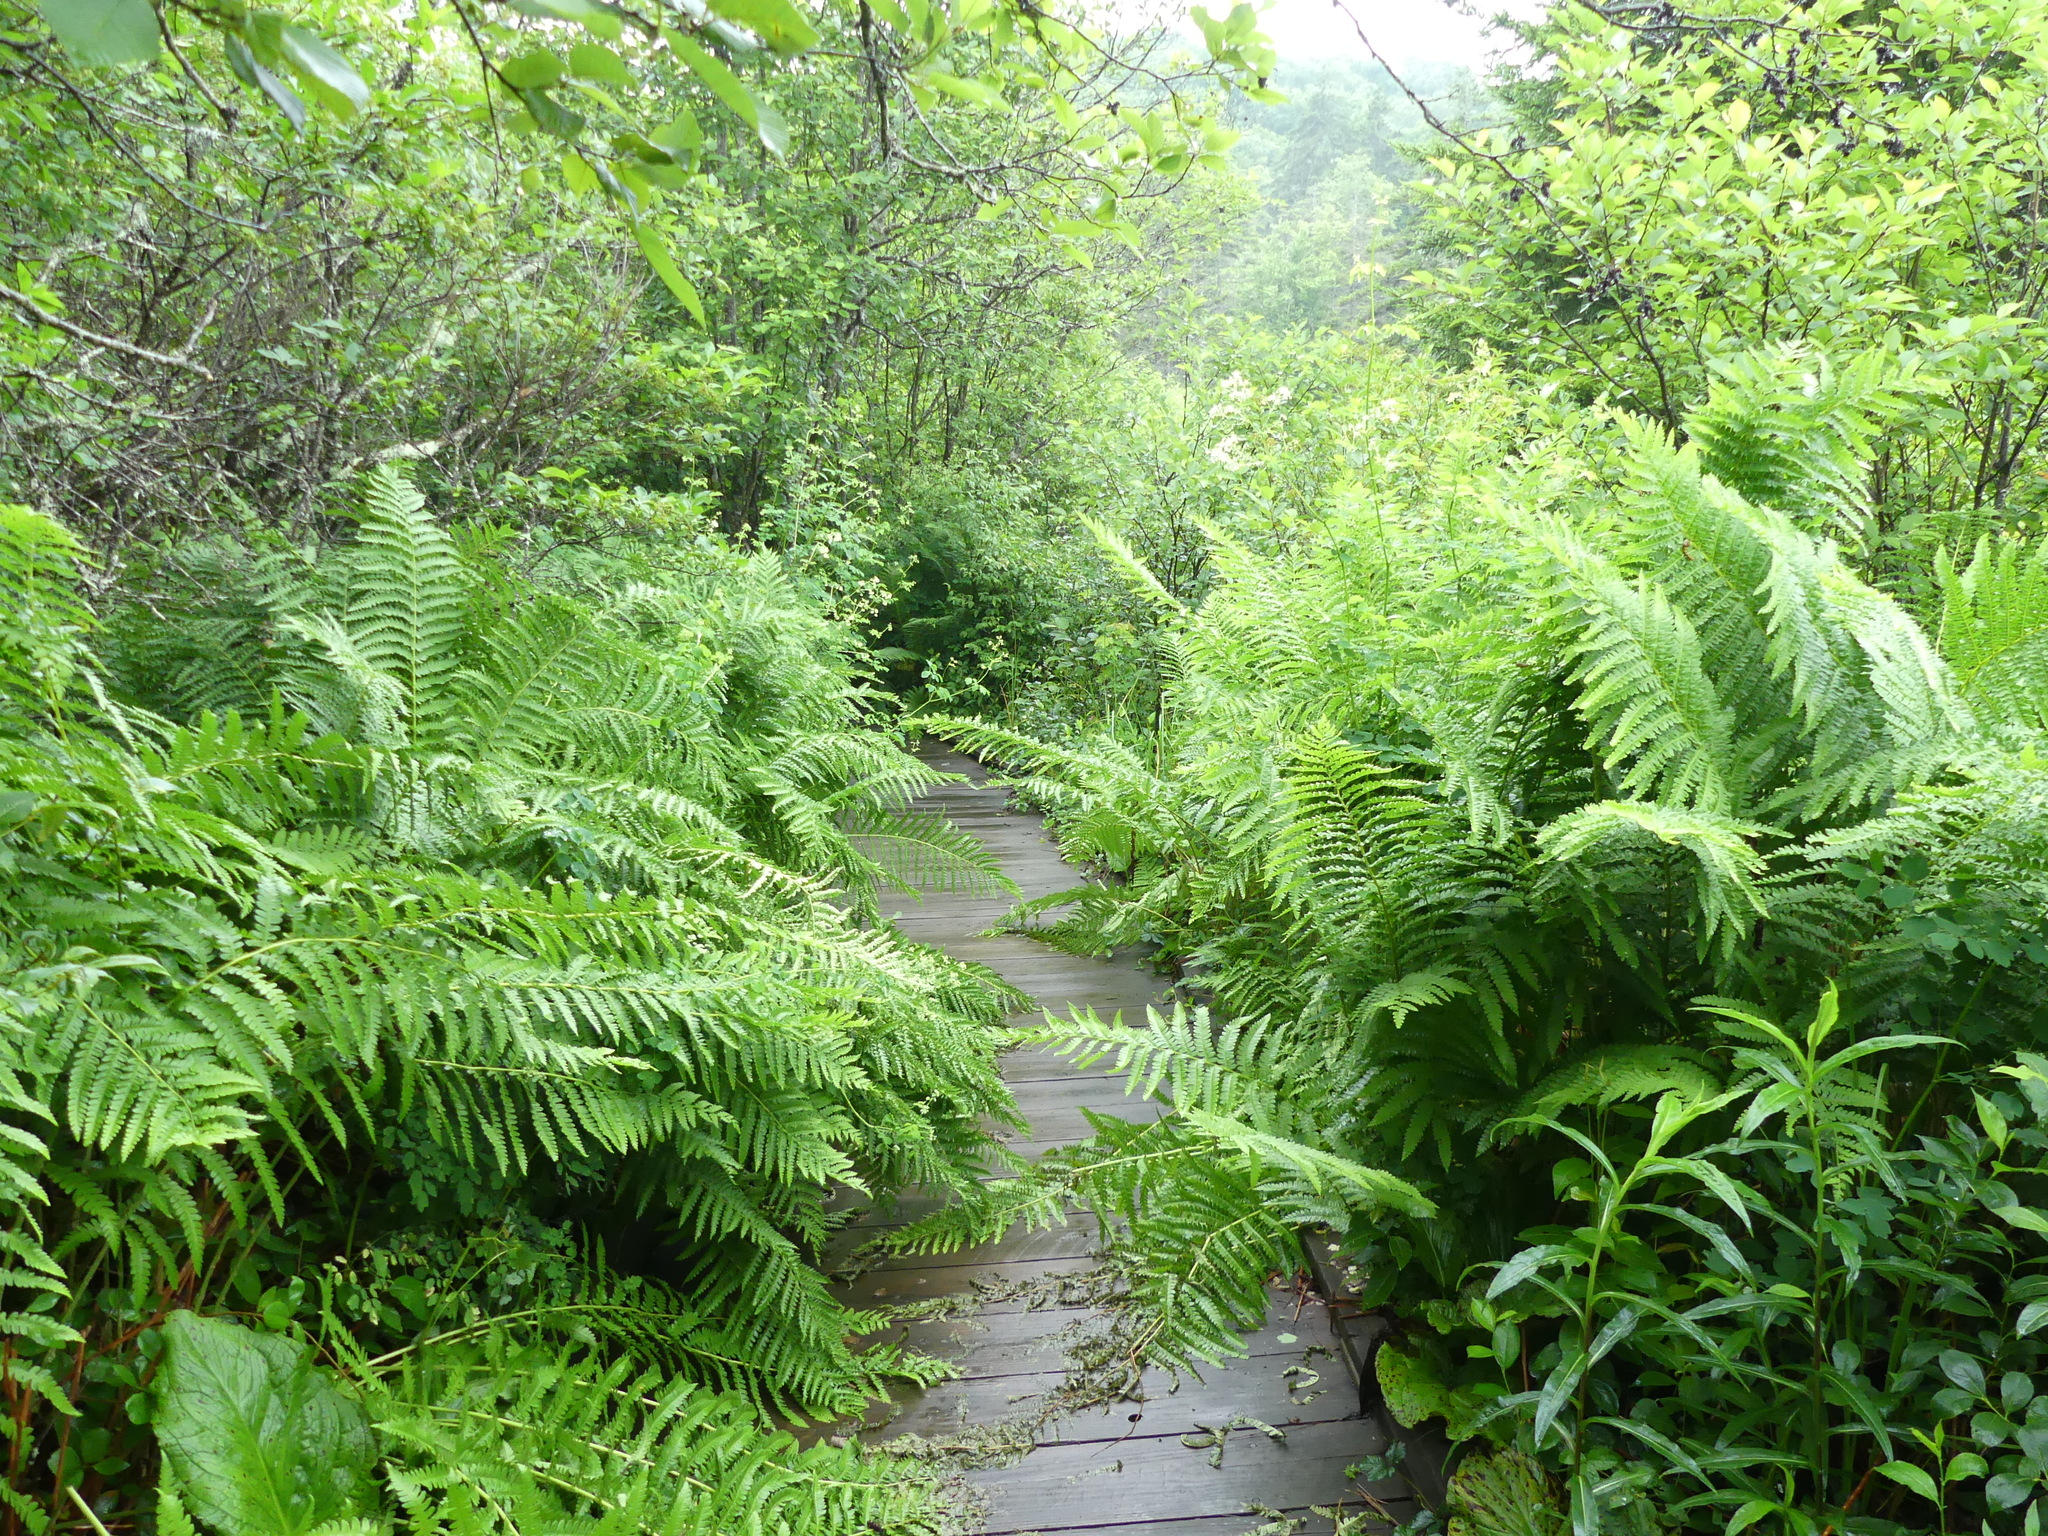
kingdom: Plantae
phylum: Tracheophyta
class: Polypodiopsida
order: Osmundales
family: Osmundaceae
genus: Osmundastrum
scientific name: Osmundastrum cinnamomeum
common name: Cinnamon fern
